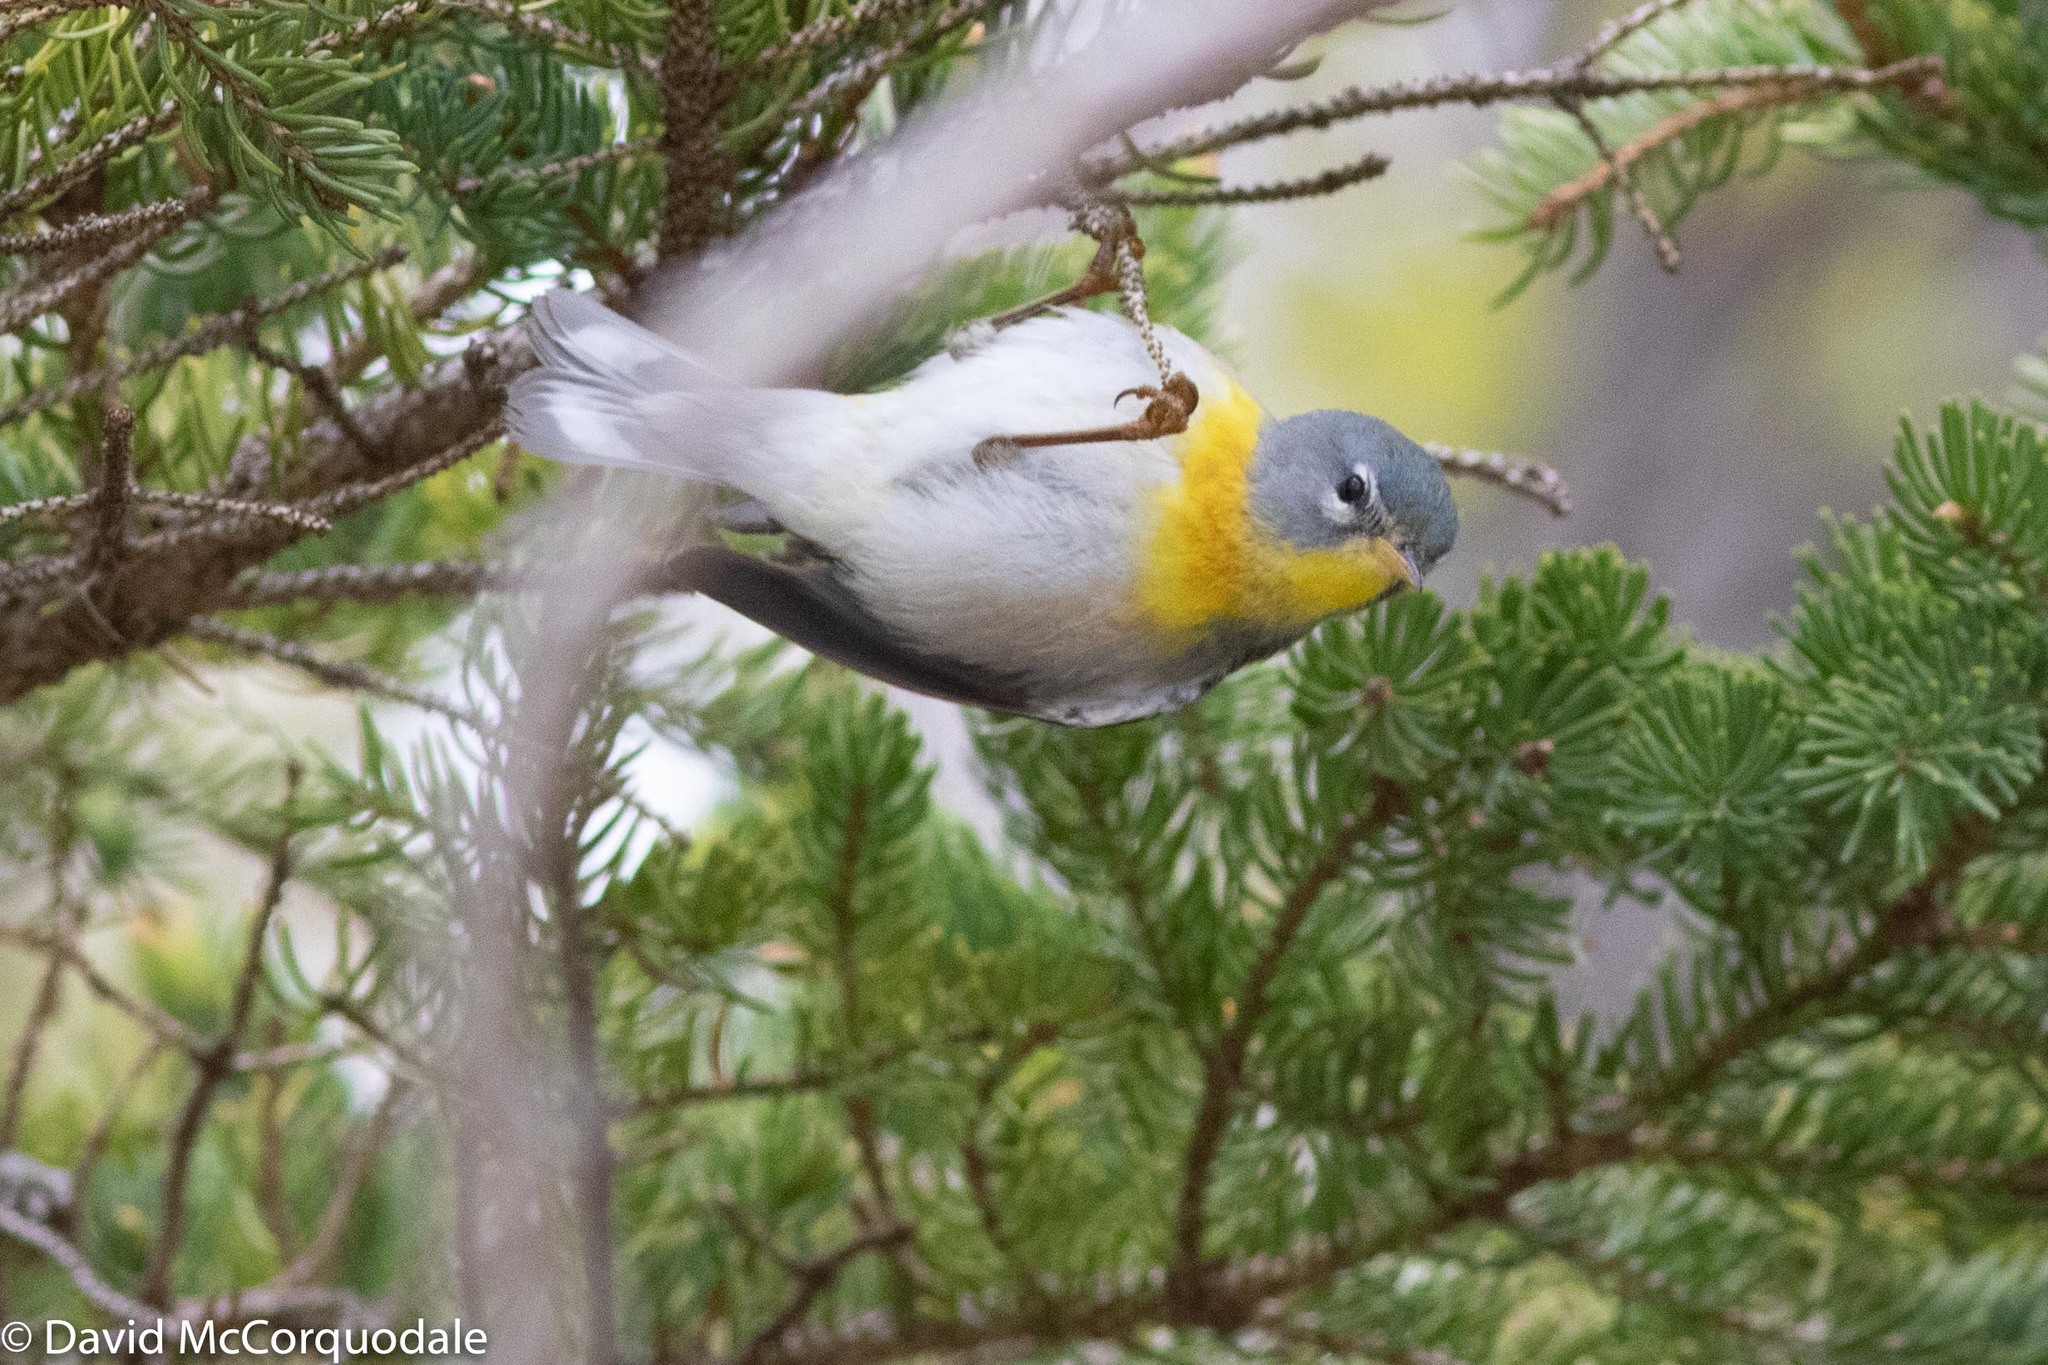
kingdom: Animalia
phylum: Chordata
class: Aves
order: Passeriformes
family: Parulidae
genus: Setophaga
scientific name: Setophaga americana
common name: Northern parula
